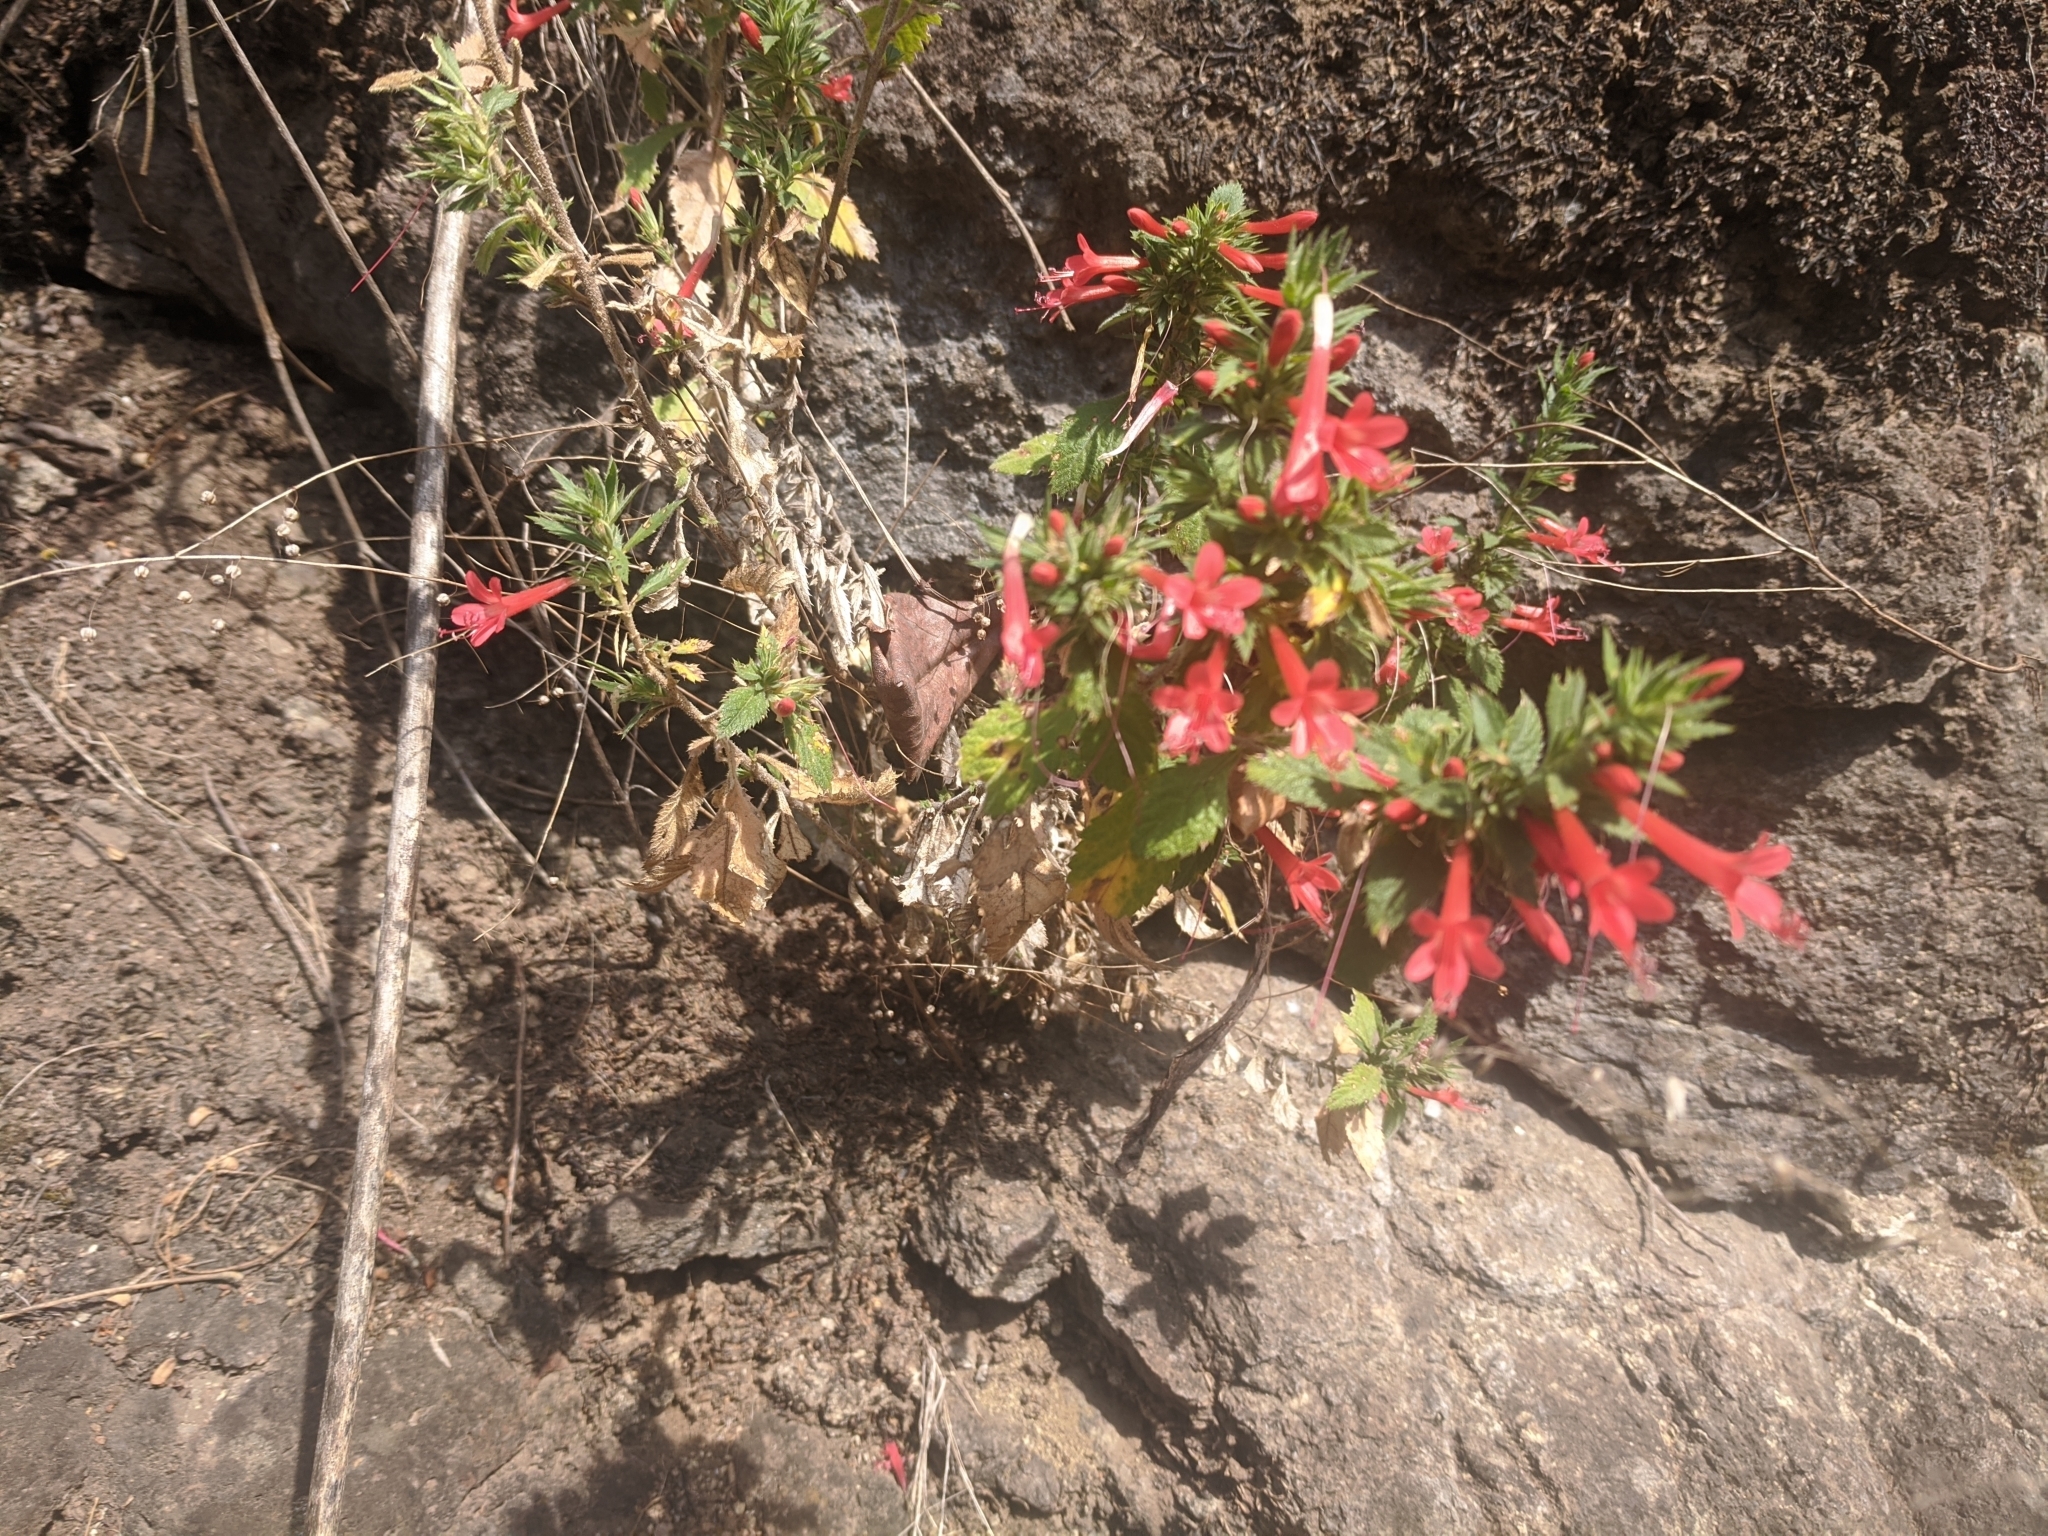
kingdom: Plantae
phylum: Tracheophyta
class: Magnoliopsida
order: Ericales
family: Polemoniaceae
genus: Loeselia
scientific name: Loeselia mexicana
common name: Mexican false calico
